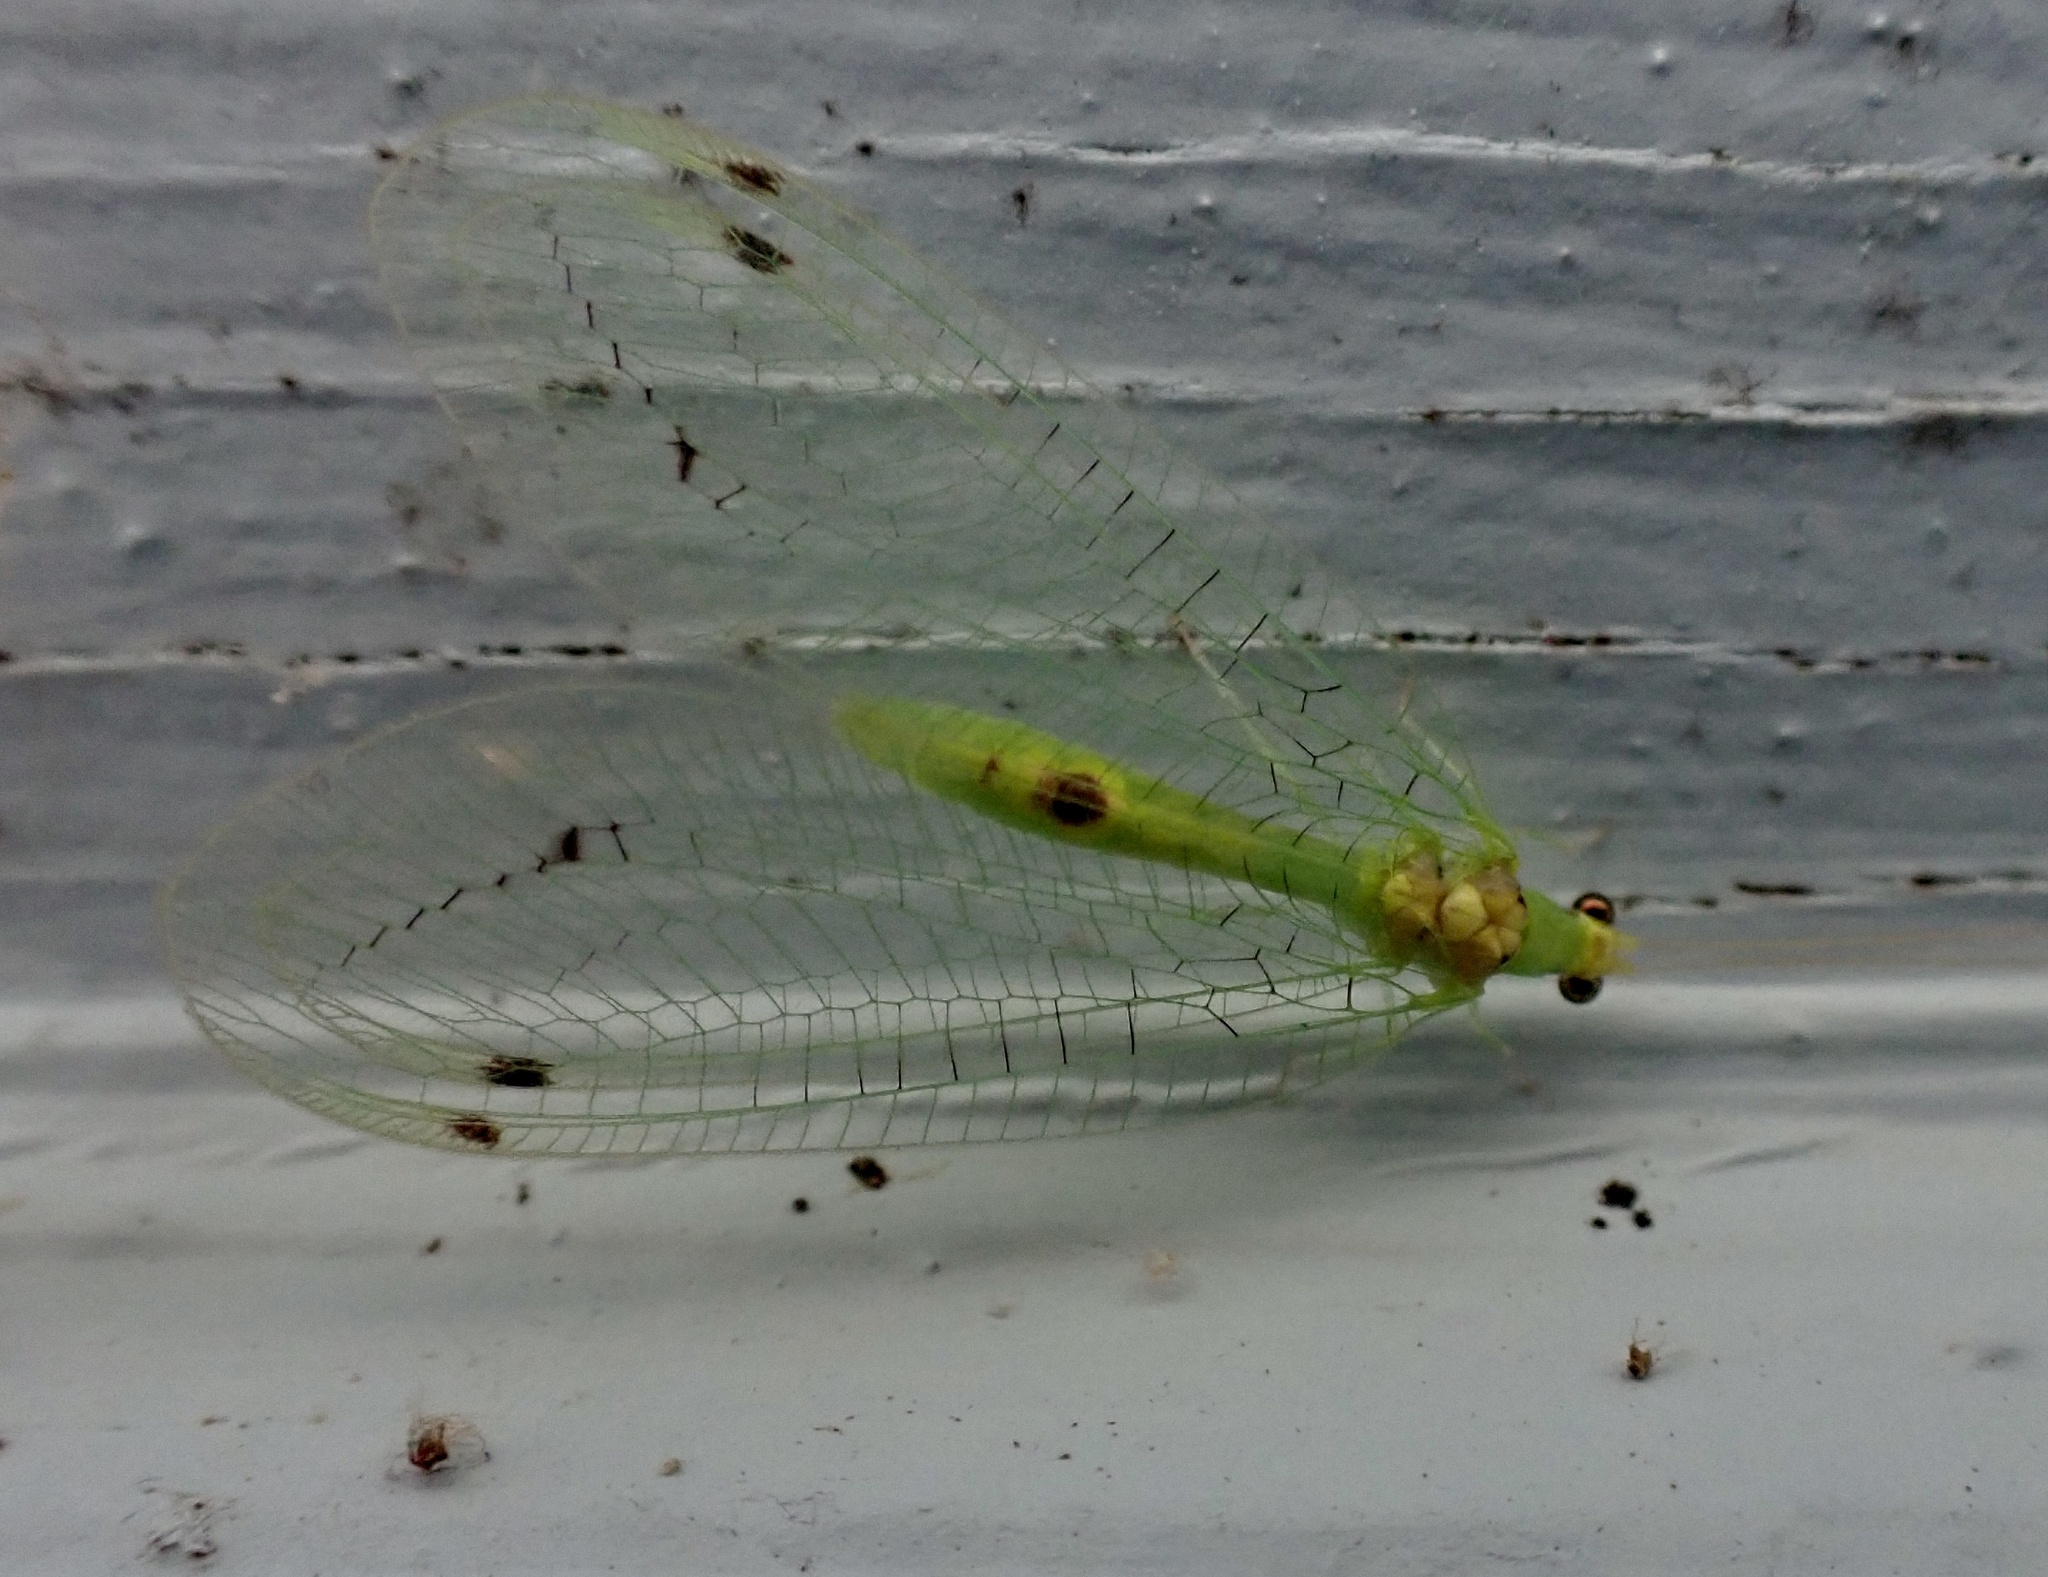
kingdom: Animalia
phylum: Arthropoda
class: Insecta
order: Neuroptera
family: Chrysopidae
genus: Leucochrysa
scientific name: Leucochrysa insularis
